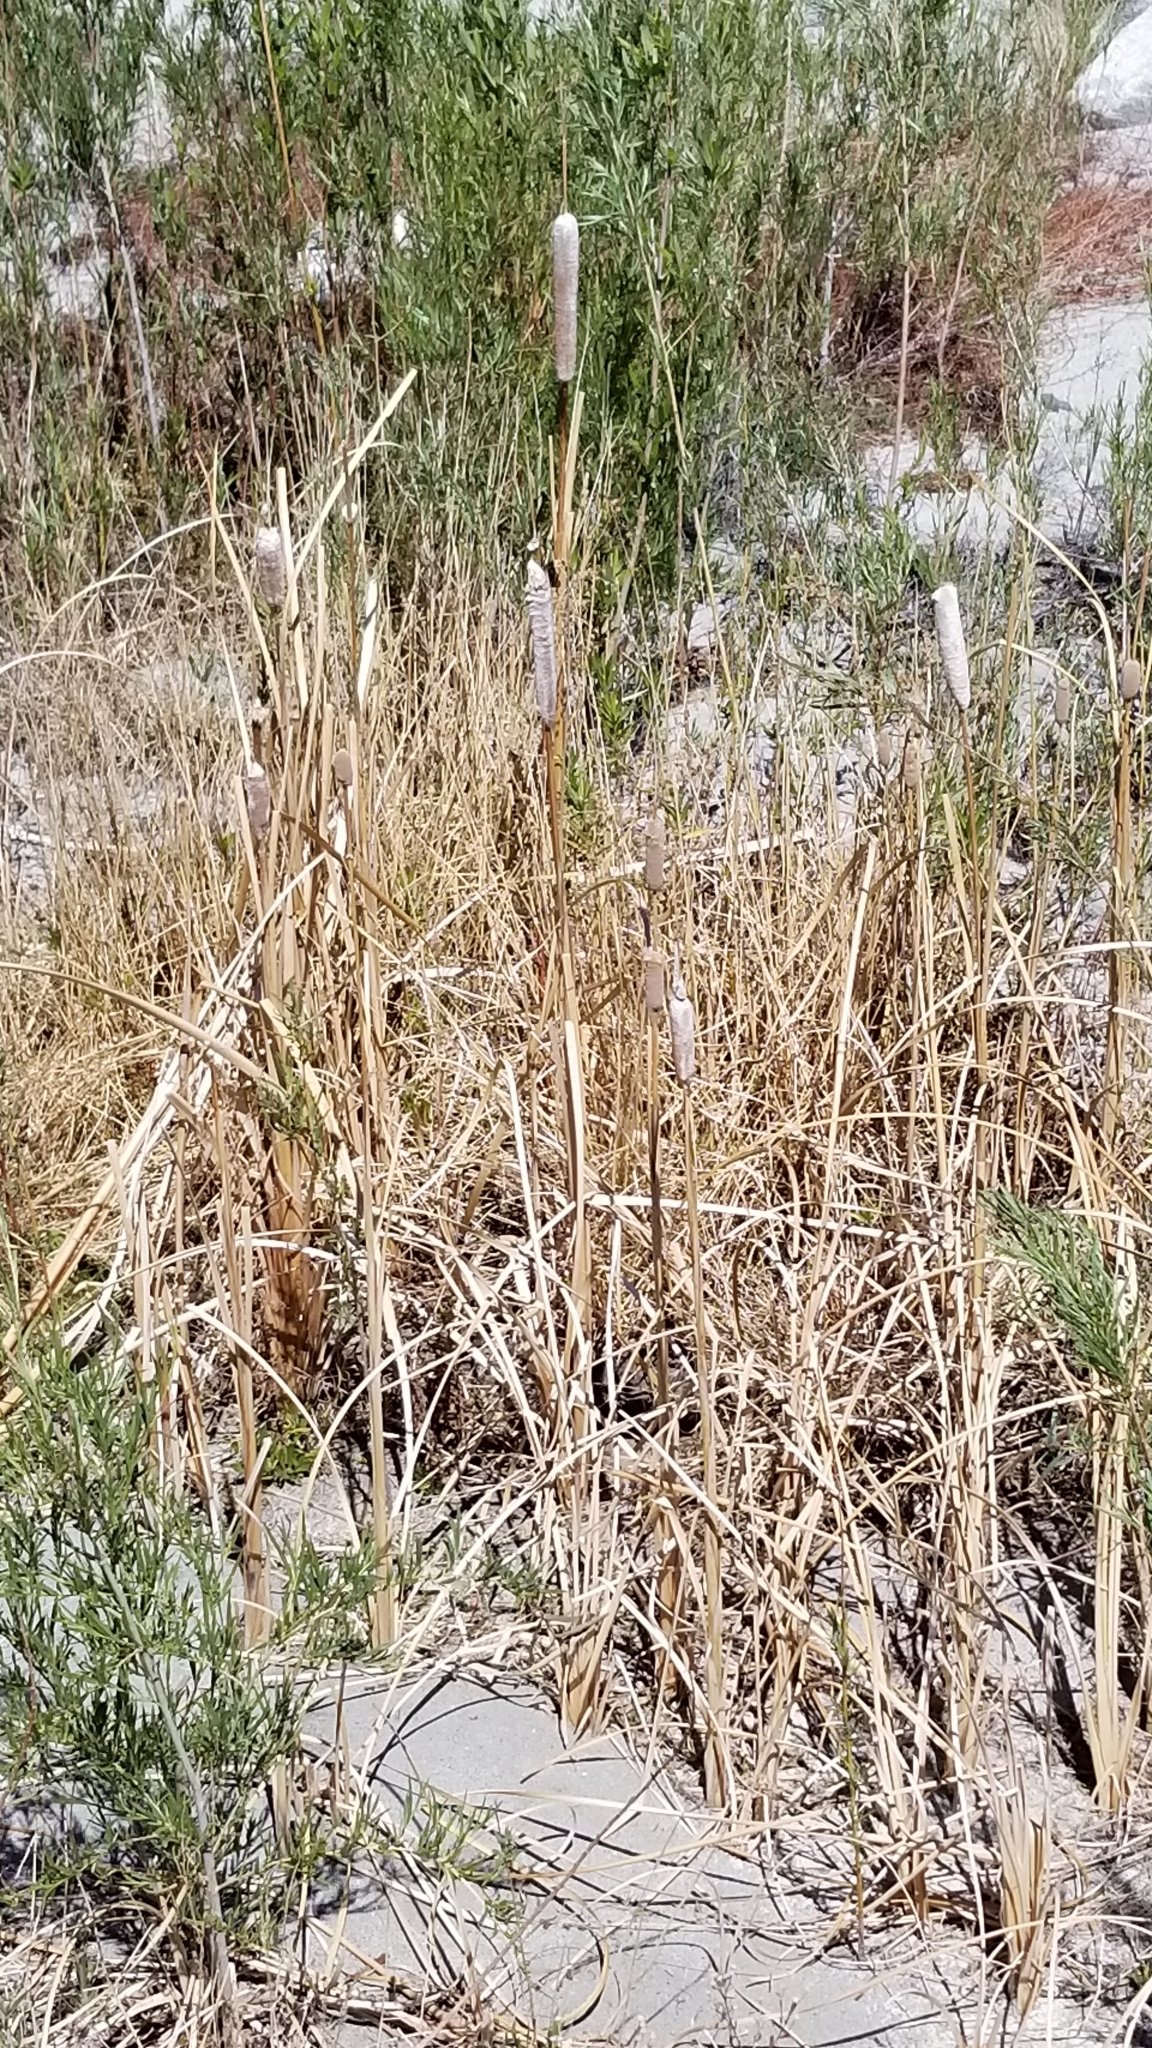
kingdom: Plantae
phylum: Tracheophyta
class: Liliopsida
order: Poales
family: Typhaceae
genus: Typha
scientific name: Typha domingensis
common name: Southern cattail
